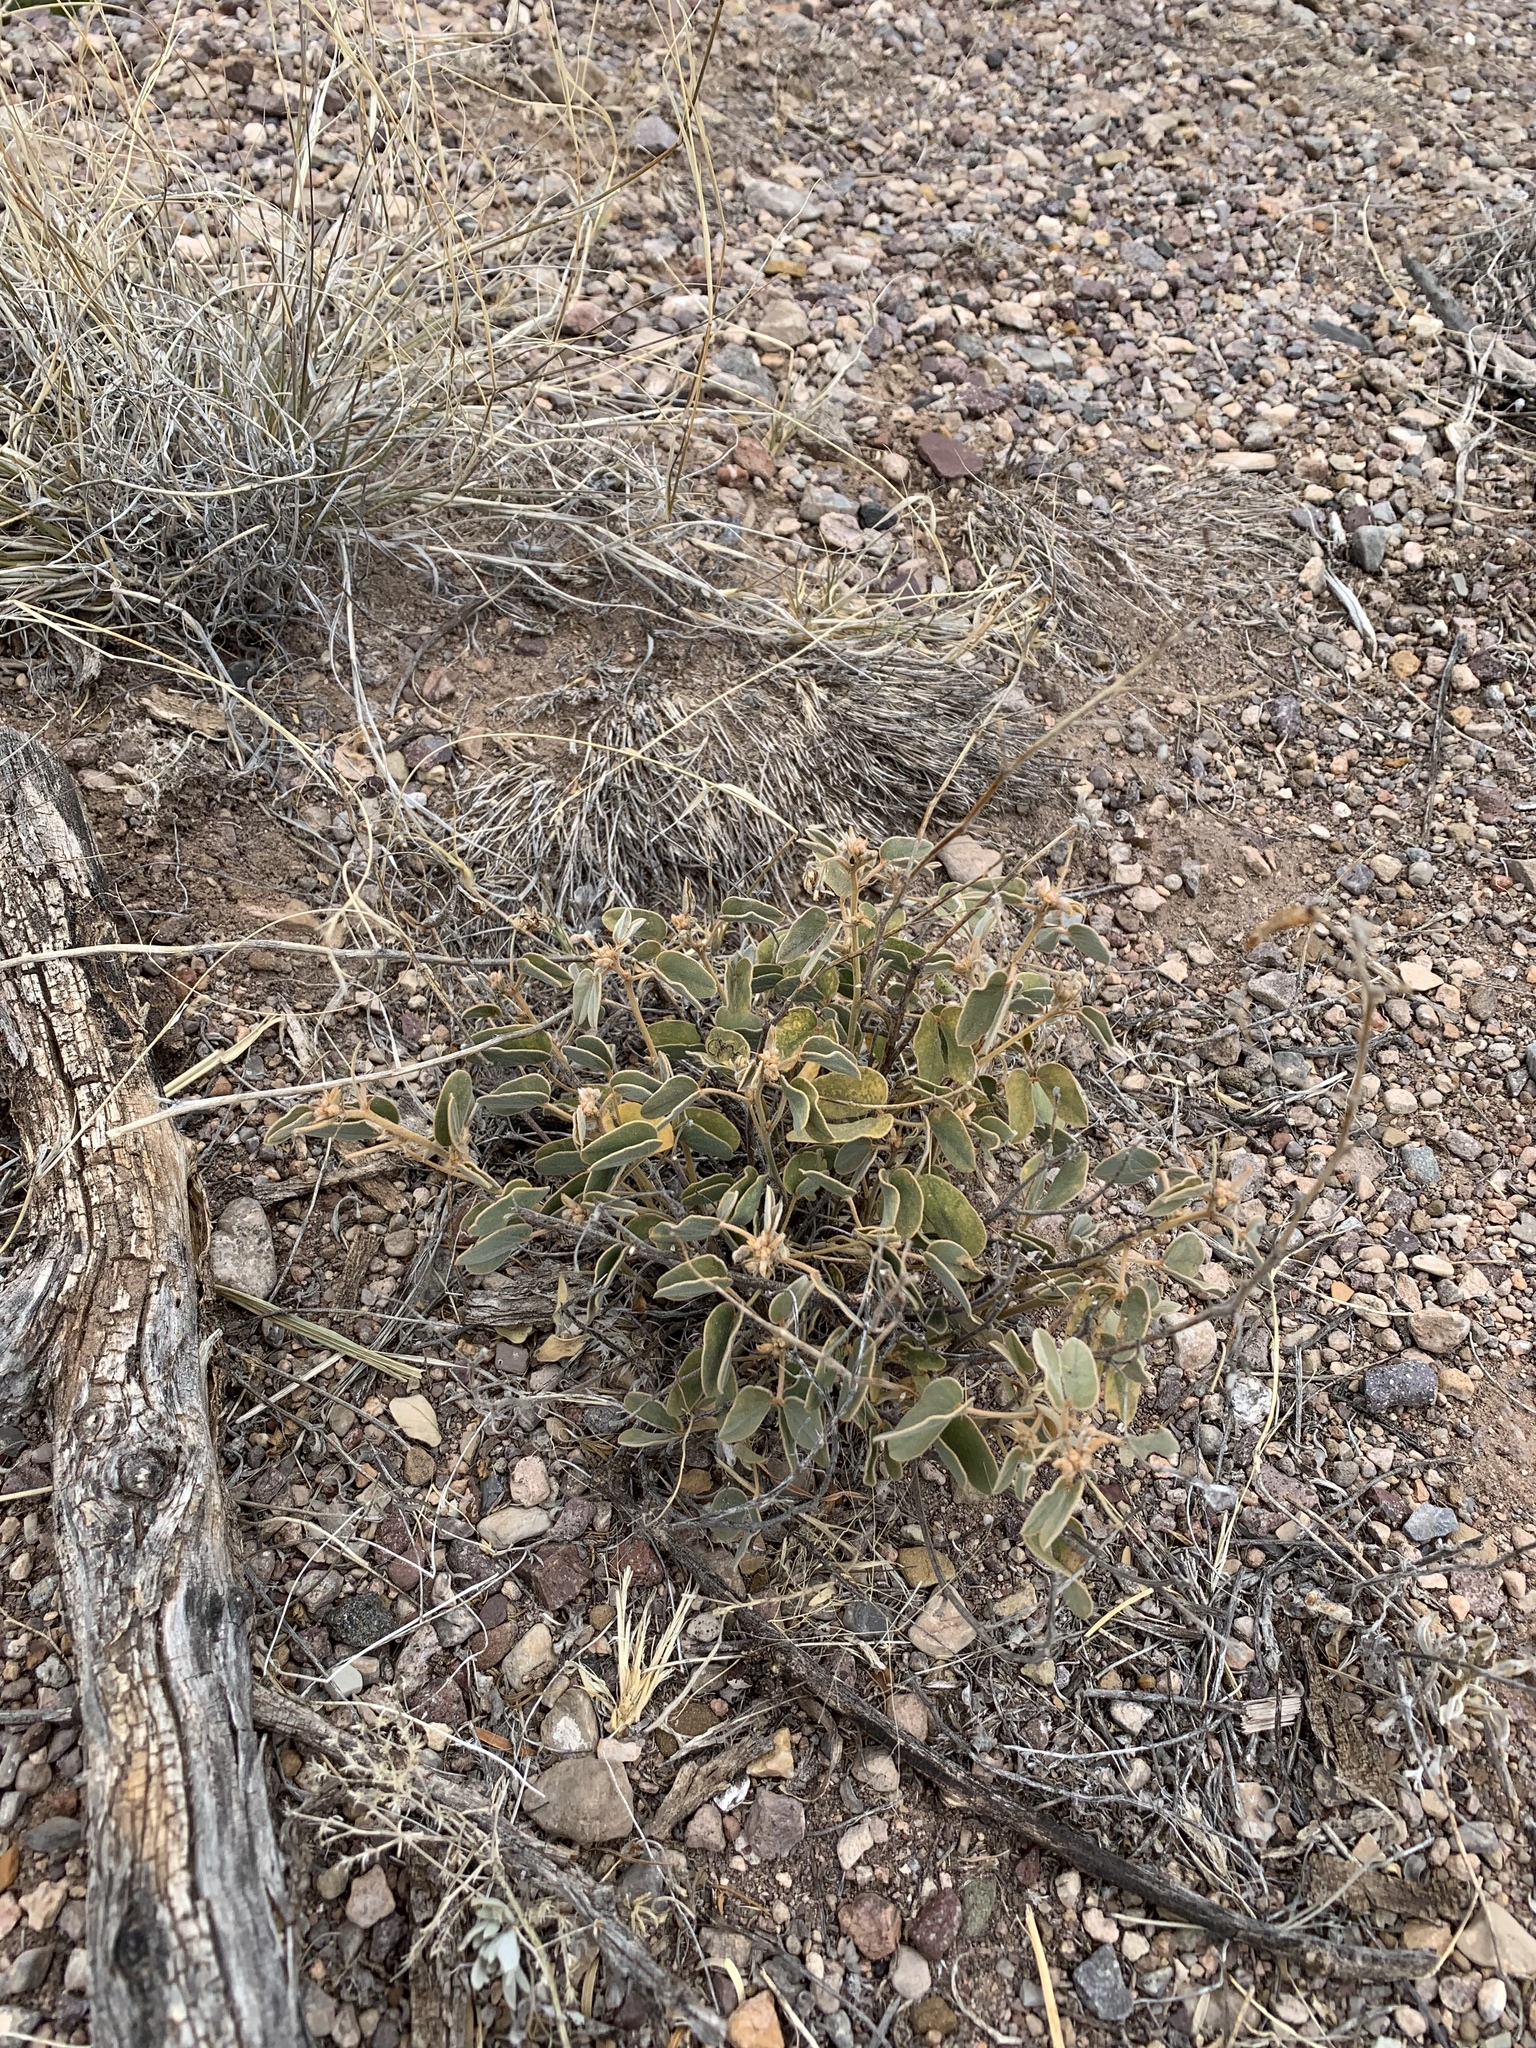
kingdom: Plantae
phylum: Tracheophyta
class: Magnoliopsida
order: Fabales
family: Fabaceae
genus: Senna
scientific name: Senna bauhinioides
